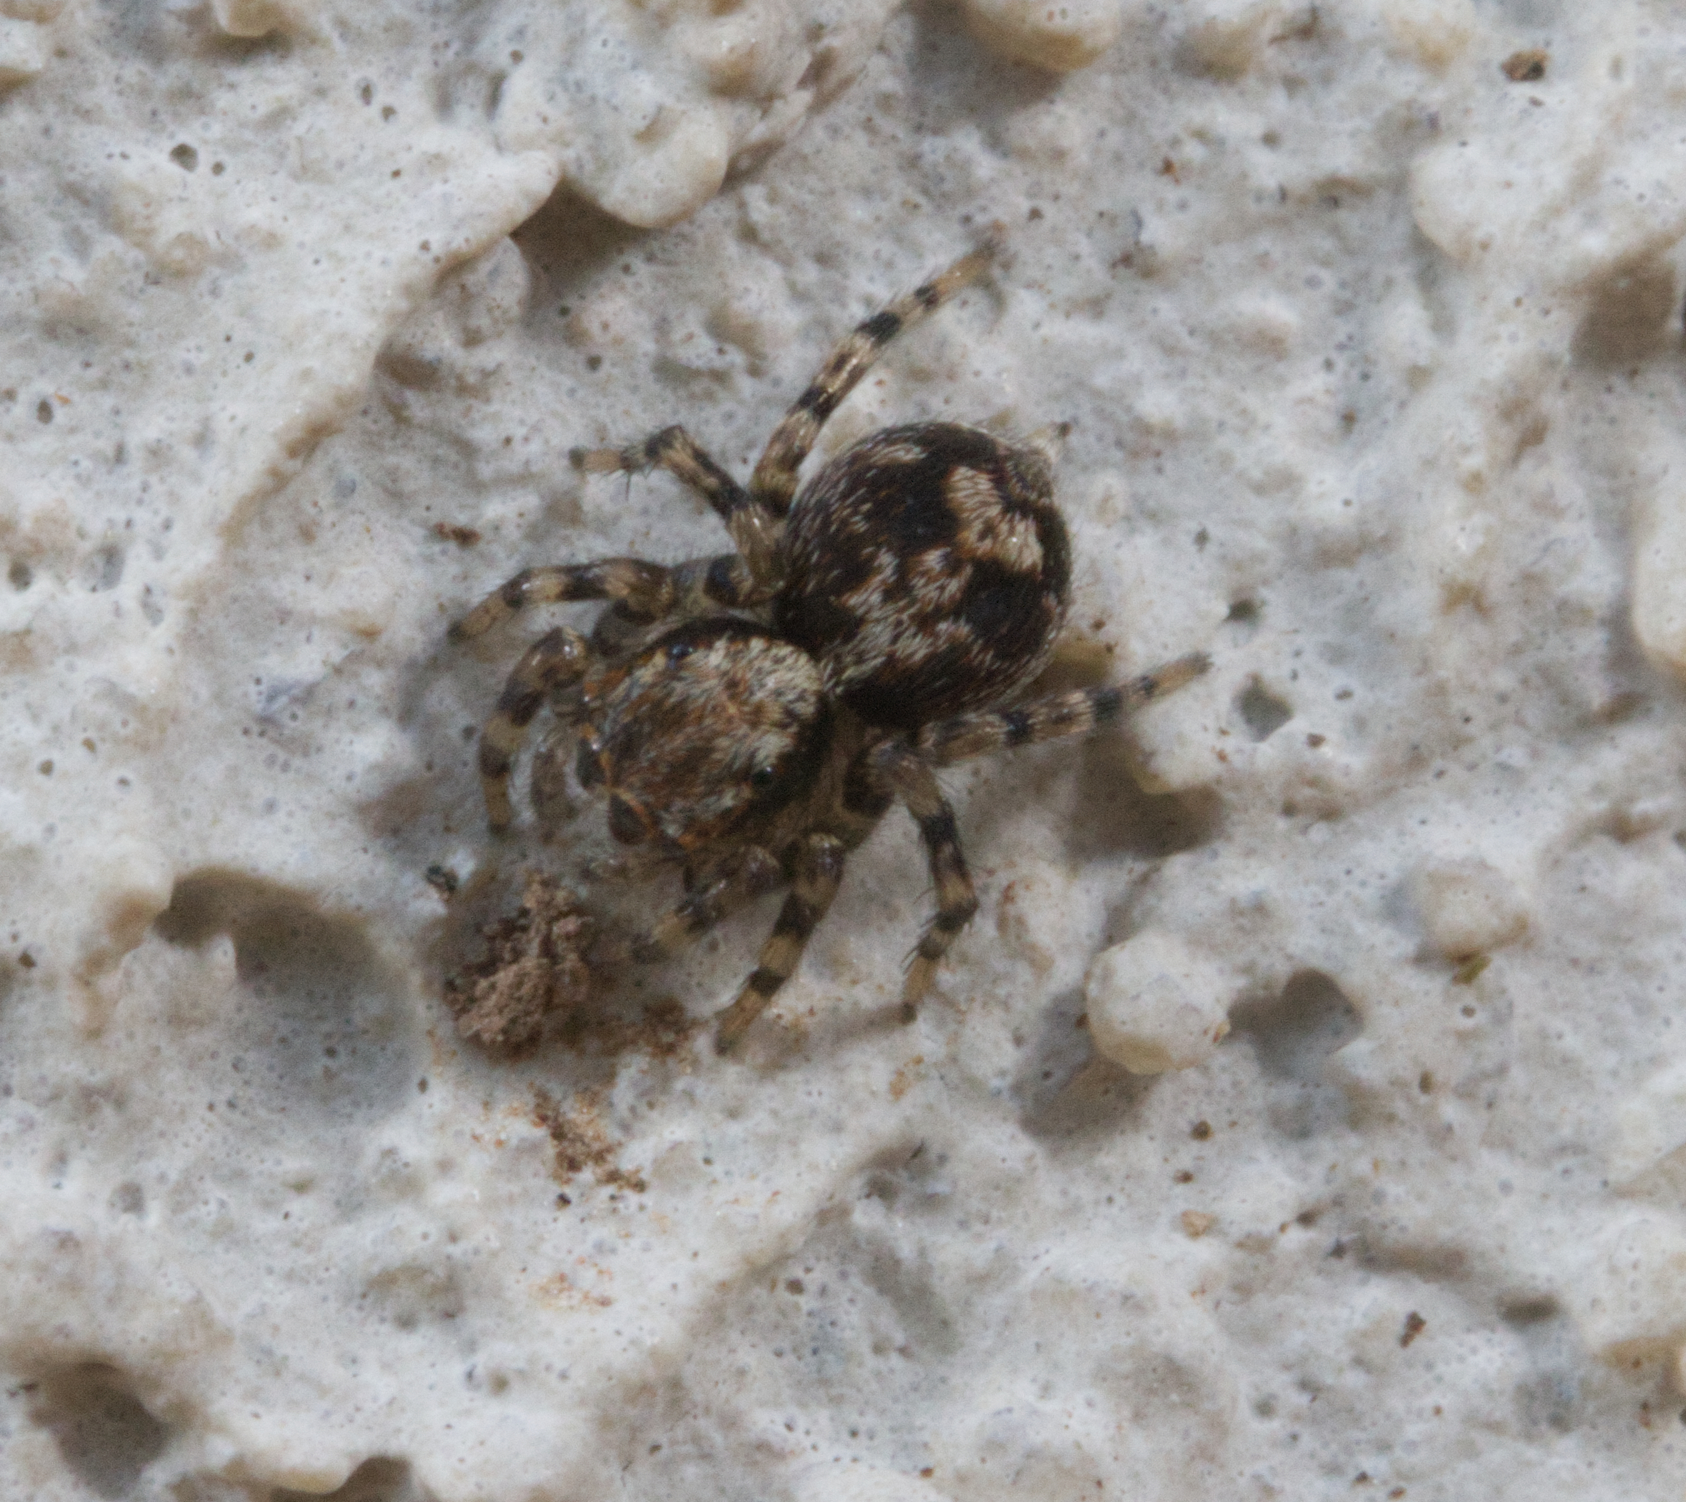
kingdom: Animalia
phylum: Arthropoda
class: Arachnida
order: Araneae
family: Salticidae
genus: Naphrys
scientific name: Naphrys pulex
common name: Flea jumping spider
